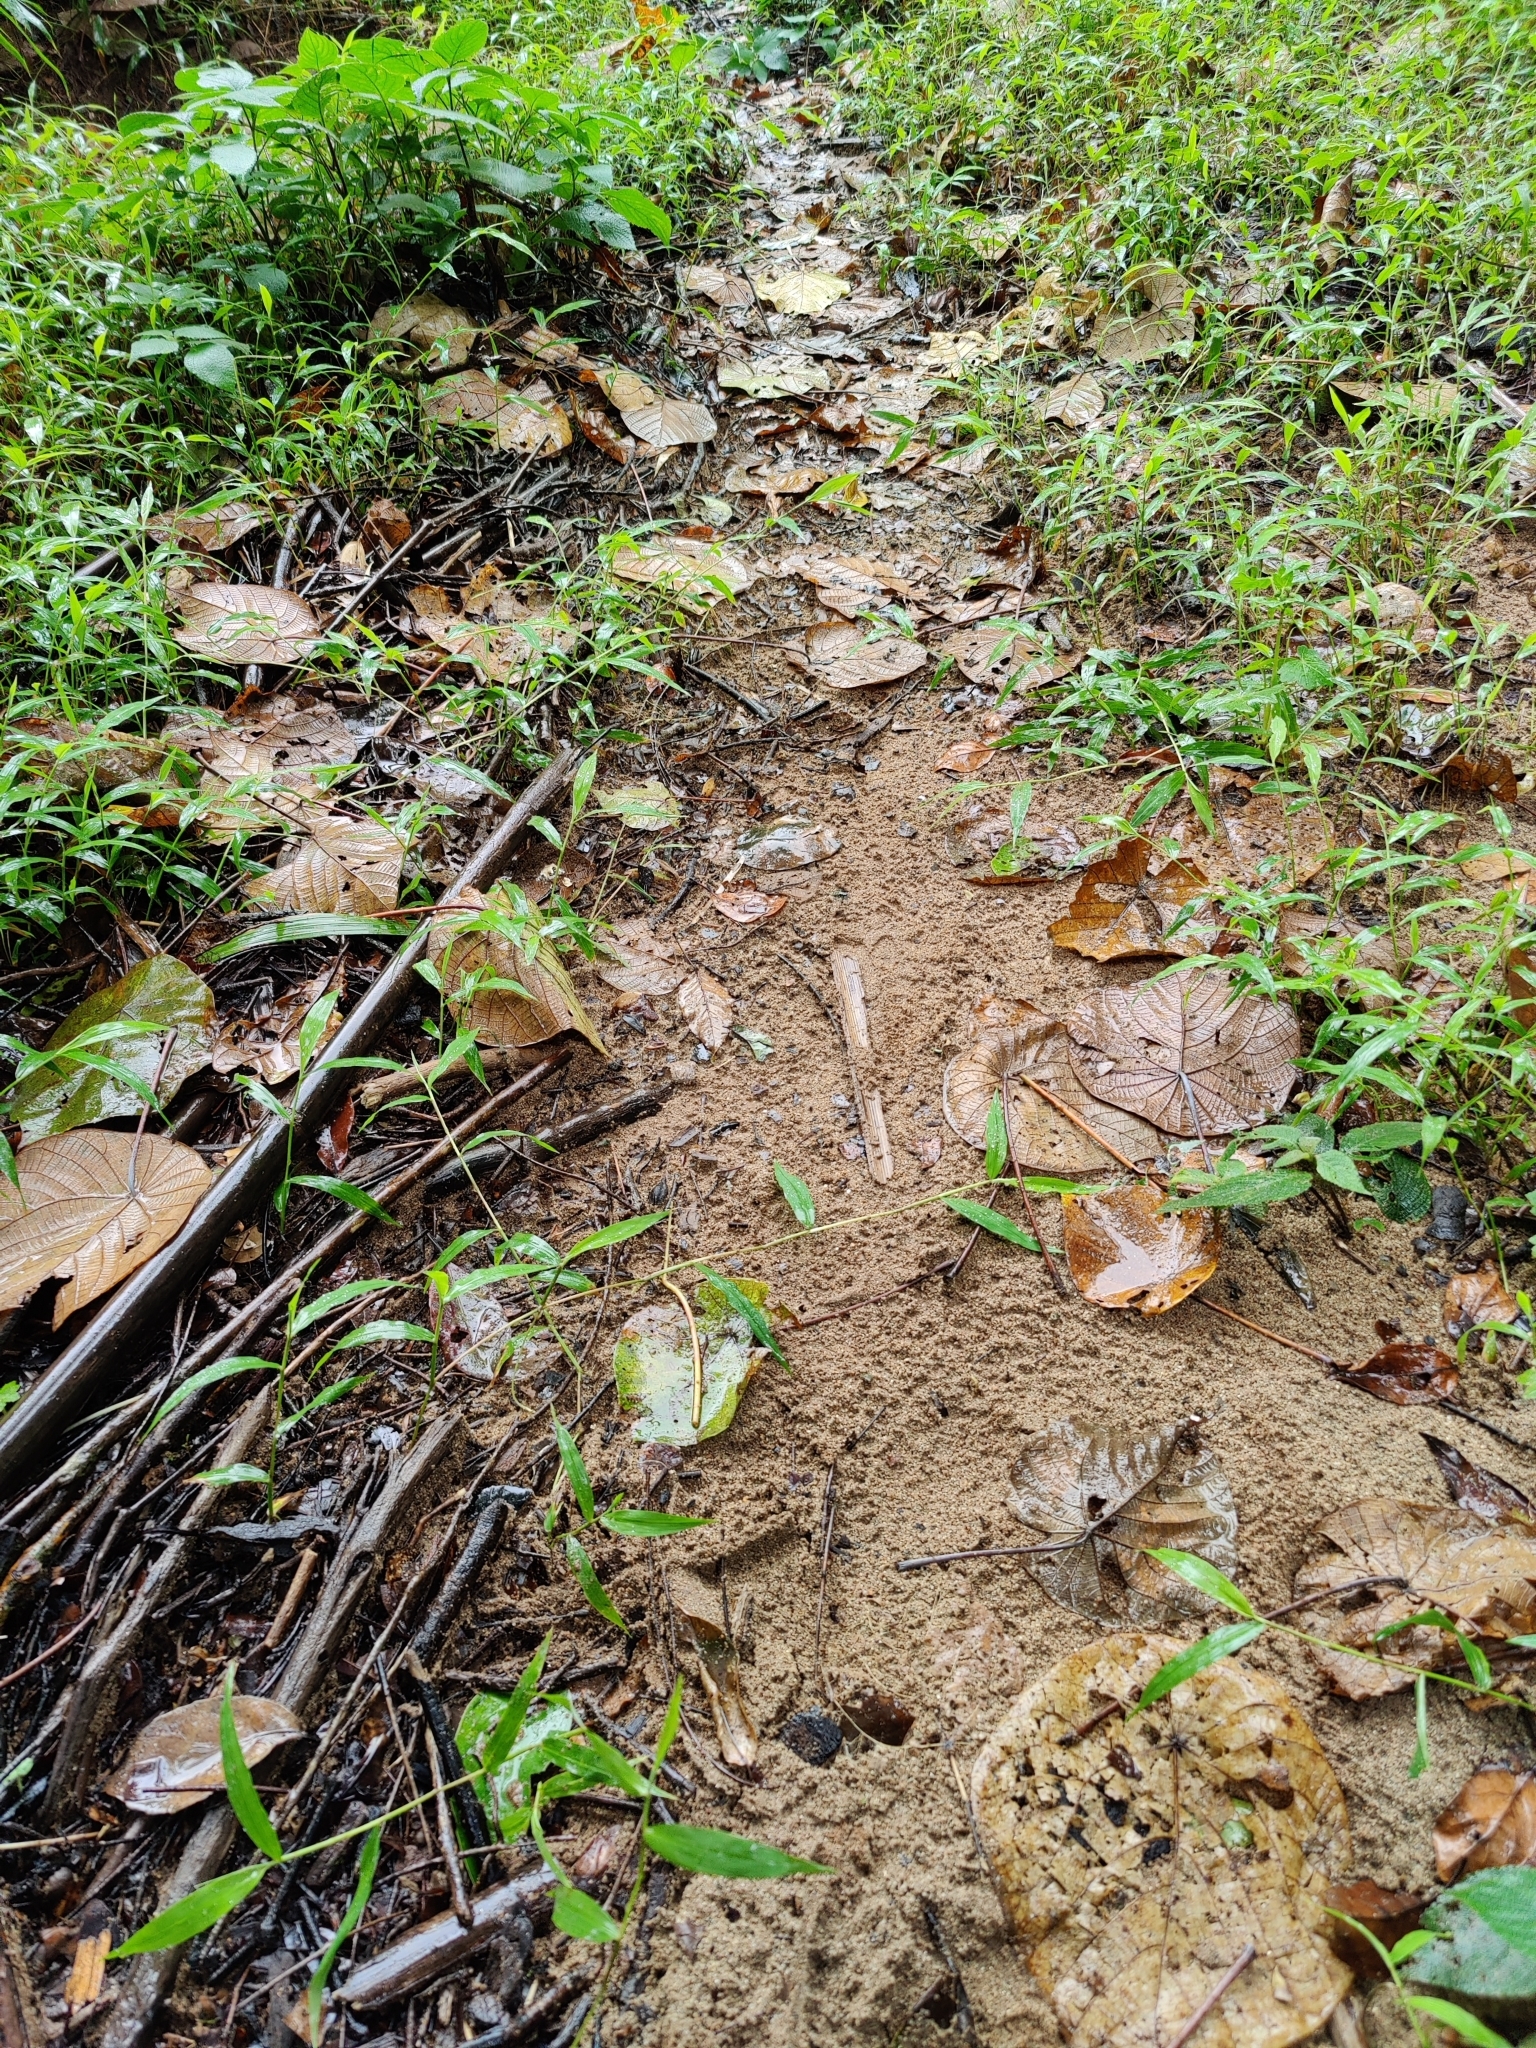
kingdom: Animalia
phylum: Arthropoda
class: Insecta
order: Coleoptera
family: Carabidae
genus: Cicindela
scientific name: Cicindela barmanica
